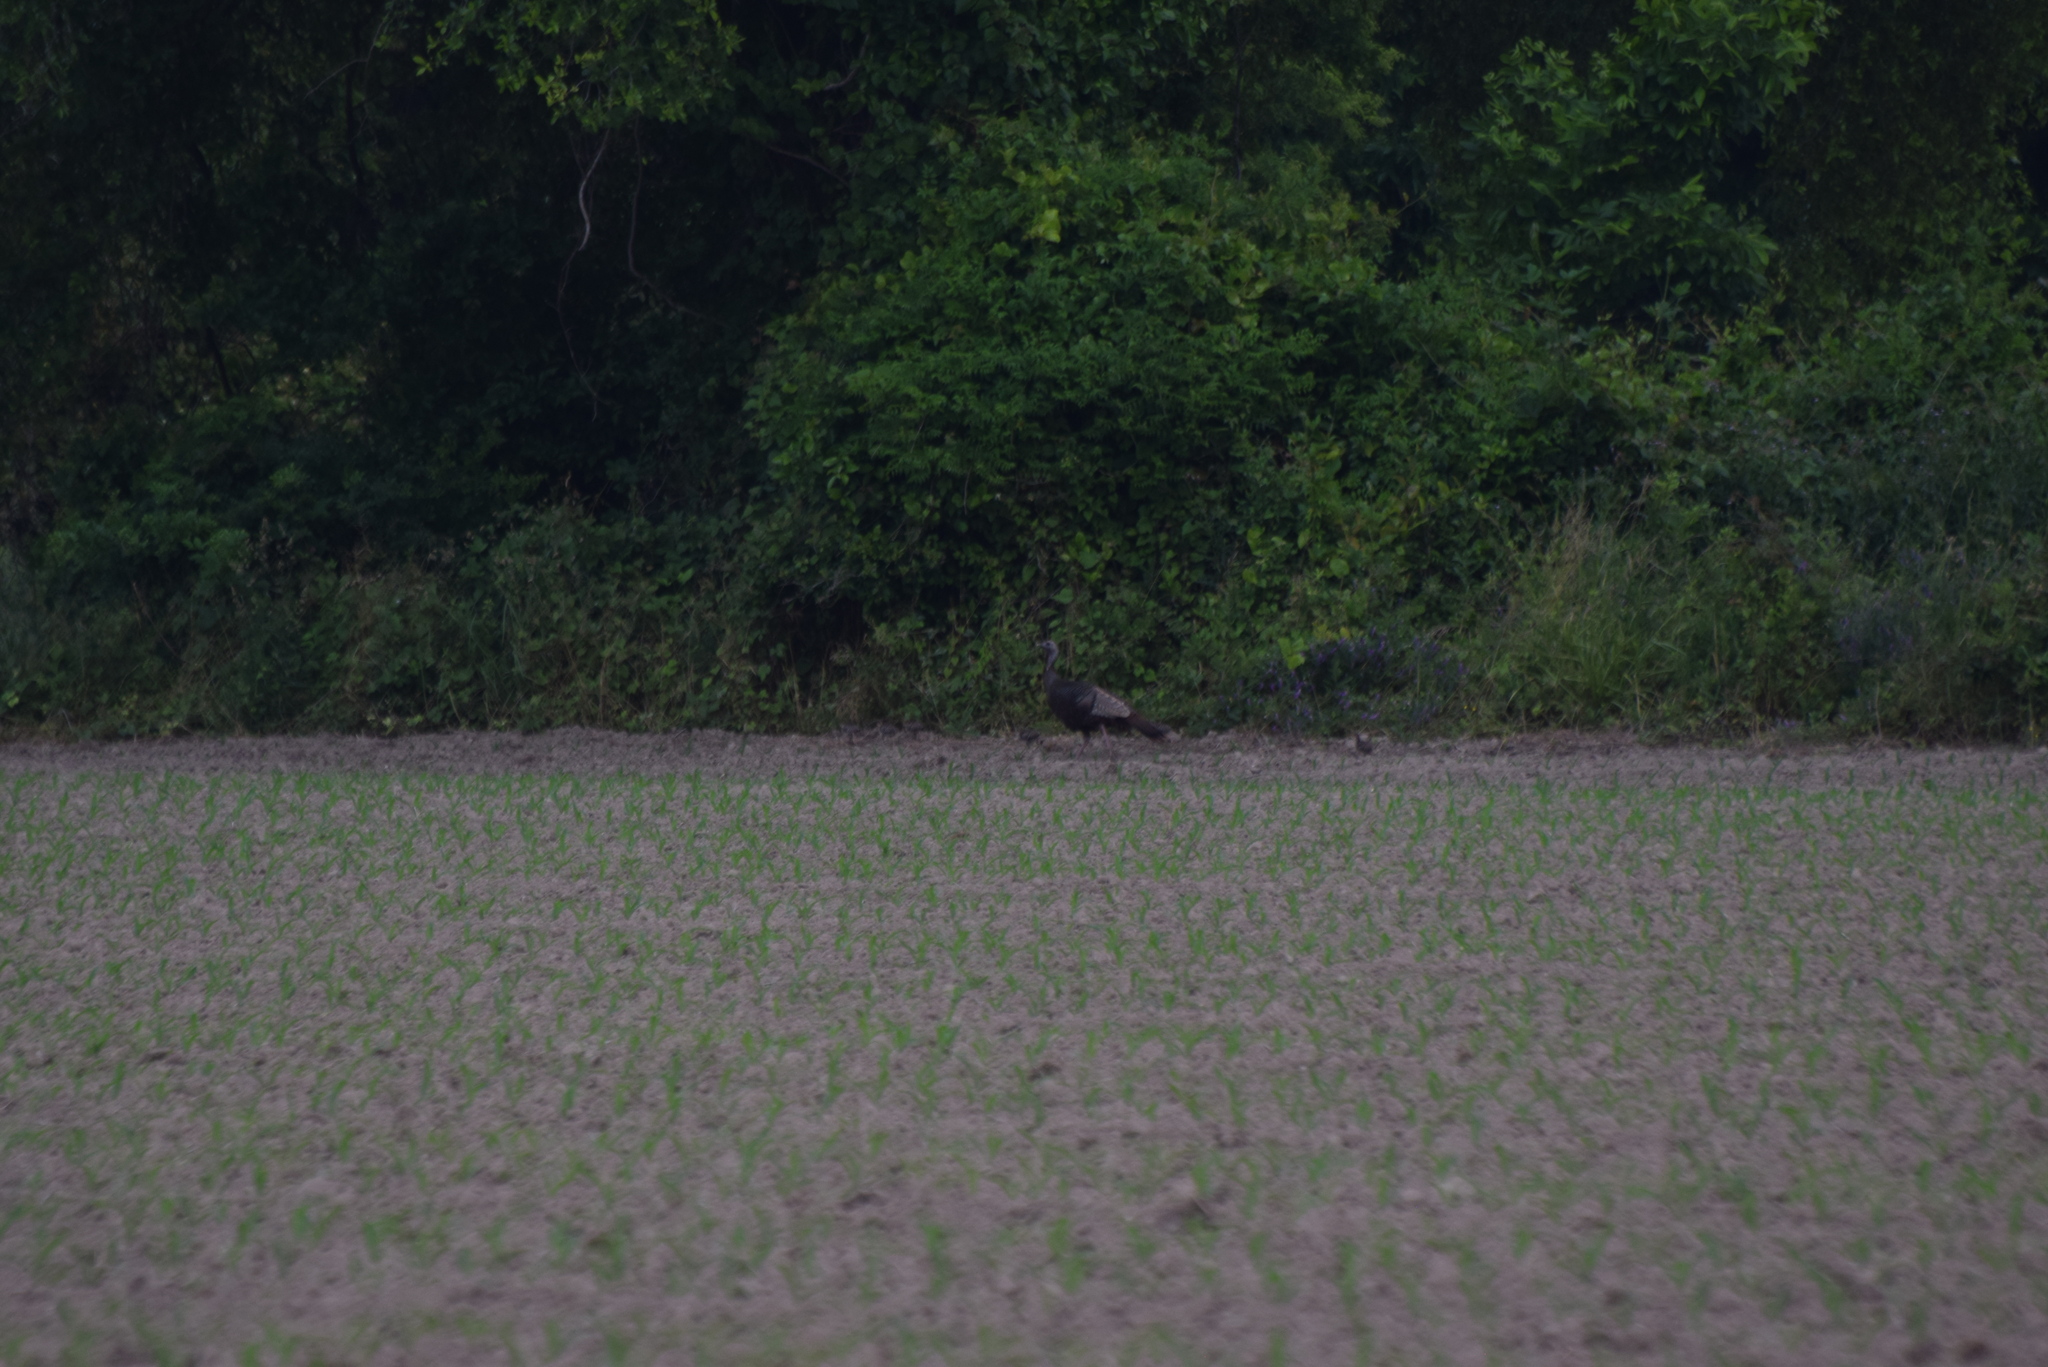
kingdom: Animalia
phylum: Chordata
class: Aves
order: Galliformes
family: Phasianidae
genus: Meleagris
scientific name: Meleagris gallopavo
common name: Wild turkey
